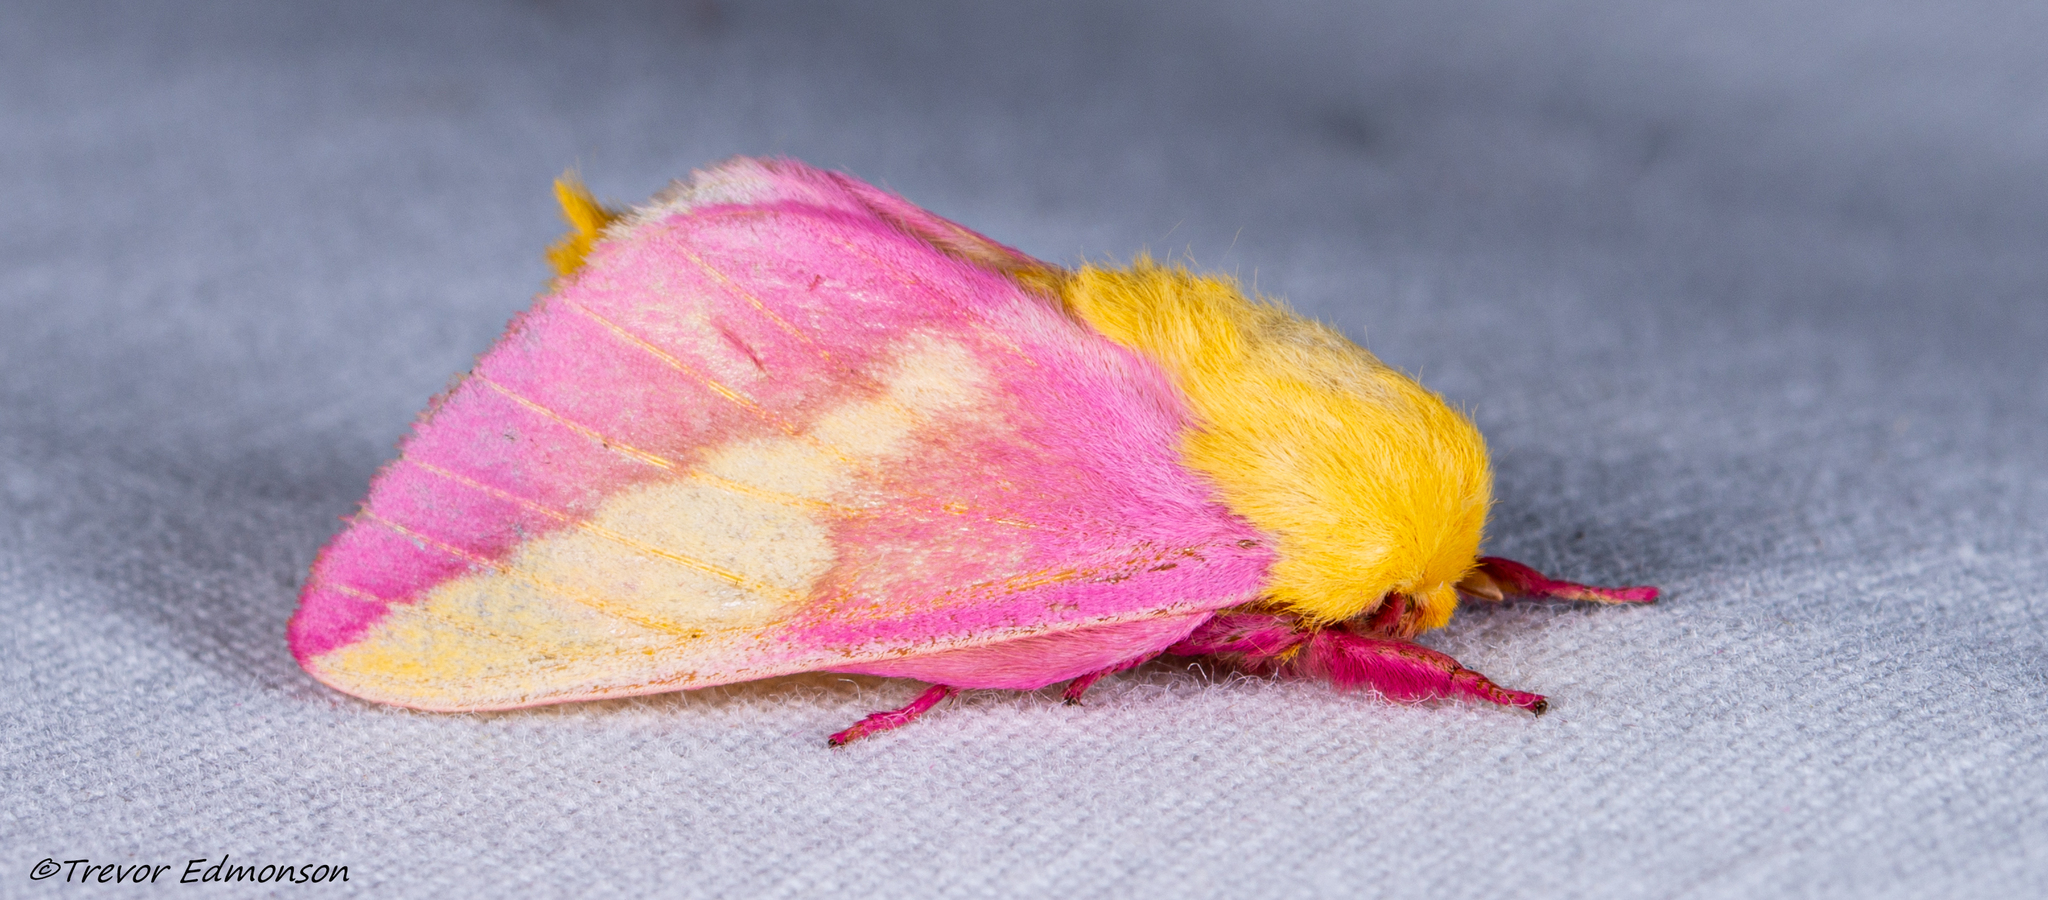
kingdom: Animalia
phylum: Arthropoda
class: Insecta
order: Lepidoptera
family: Saturniidae
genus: Dryocampa
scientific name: Dryocampa rubicunda
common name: Rosy maple moth
